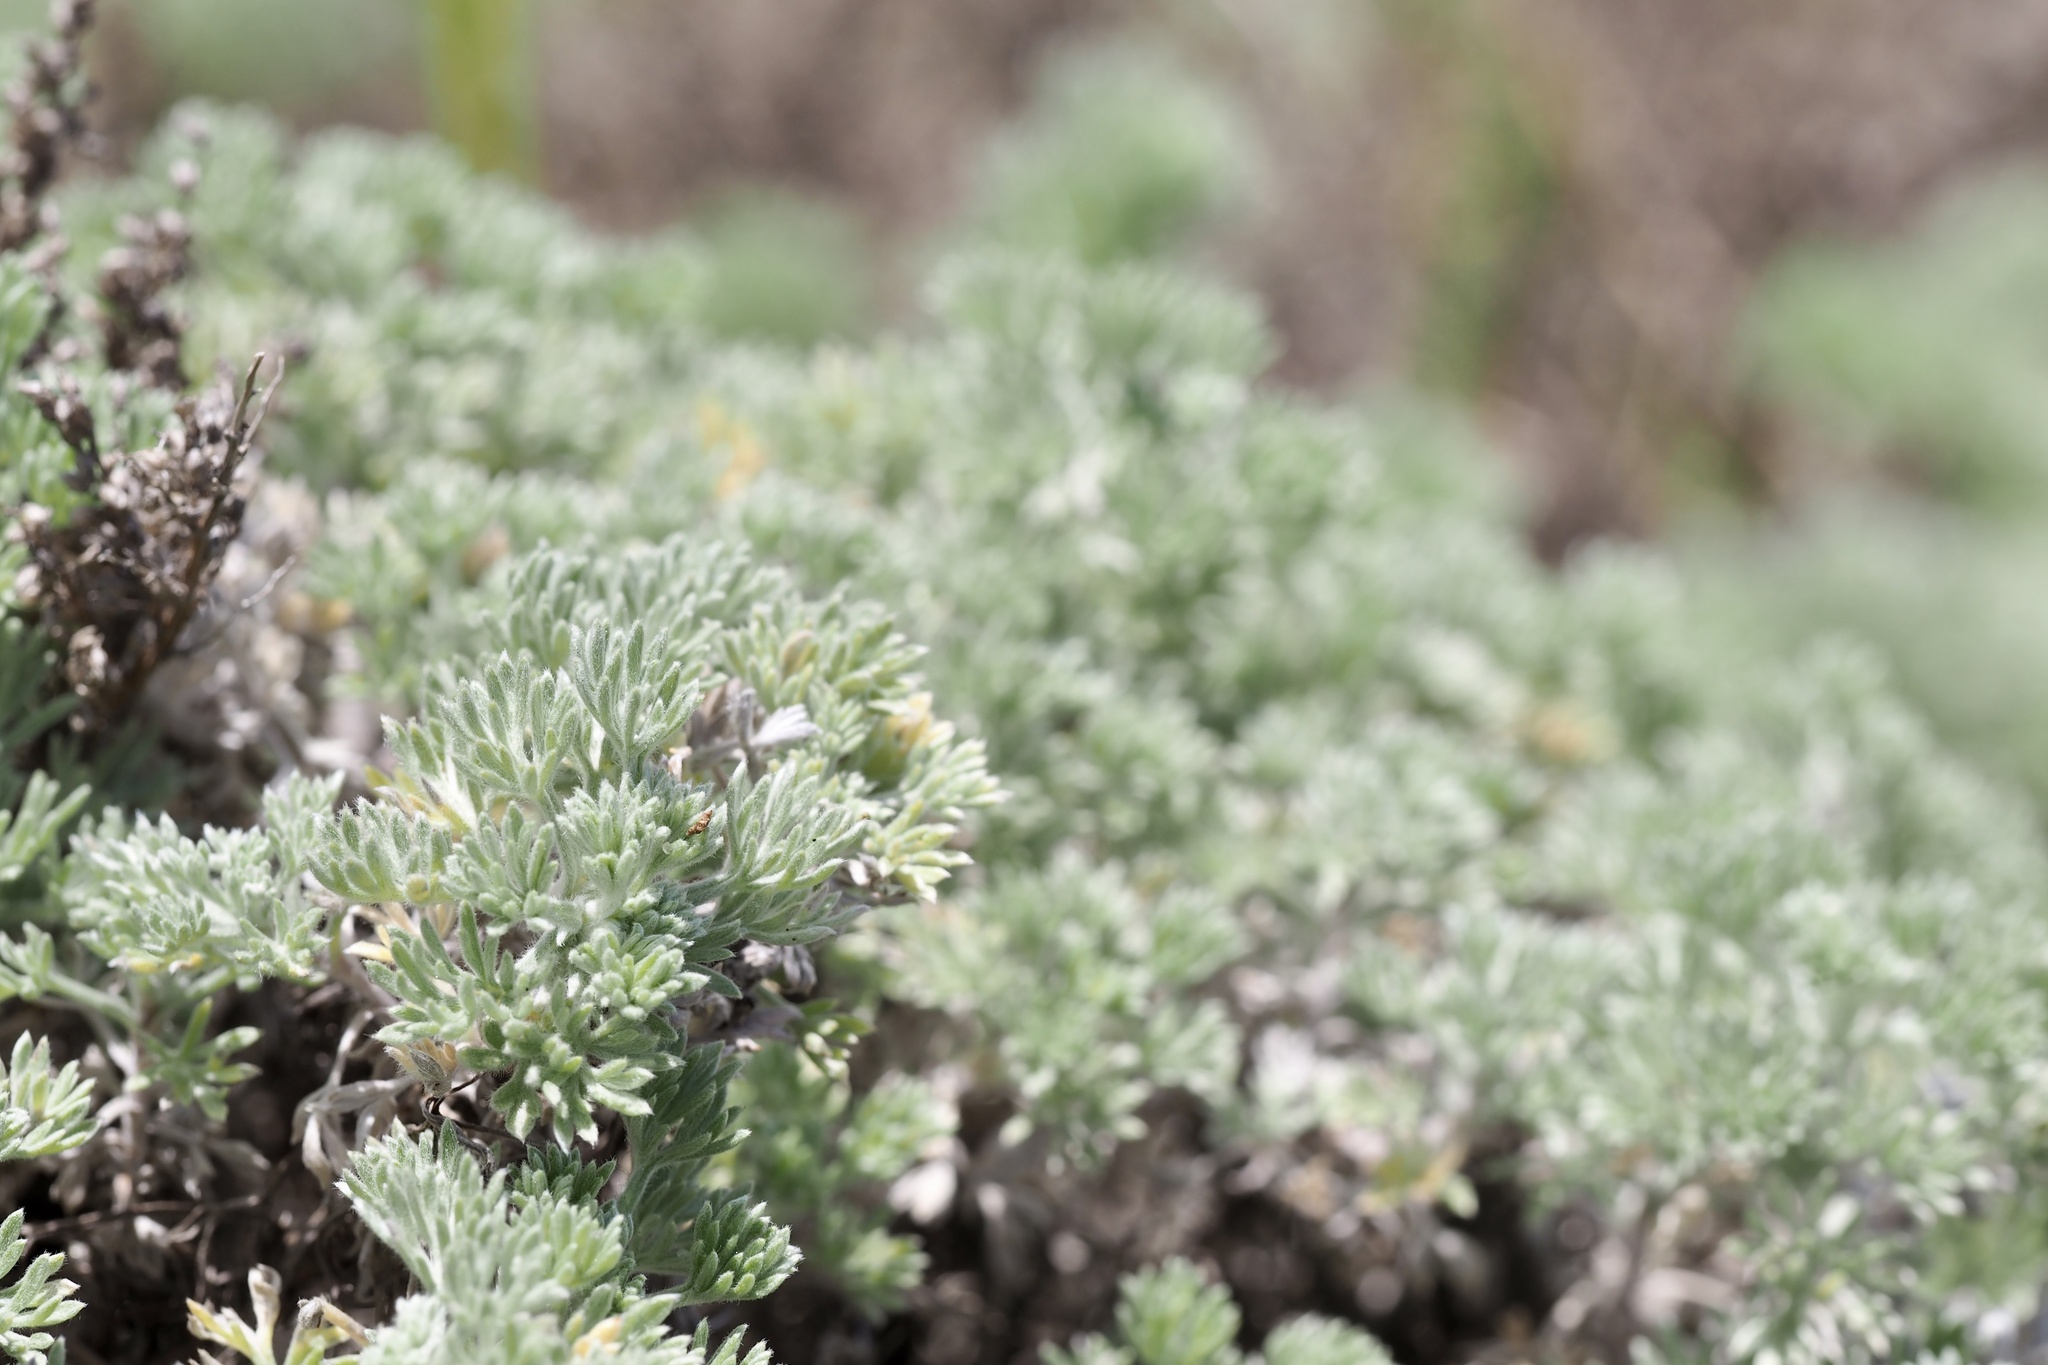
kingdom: Plantae
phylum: Tracheophyta
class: Magnoliopsida
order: Asterales
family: Asteraceae
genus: Artemisia
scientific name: Artemisia capillaris
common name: Yin-chen wormwood
